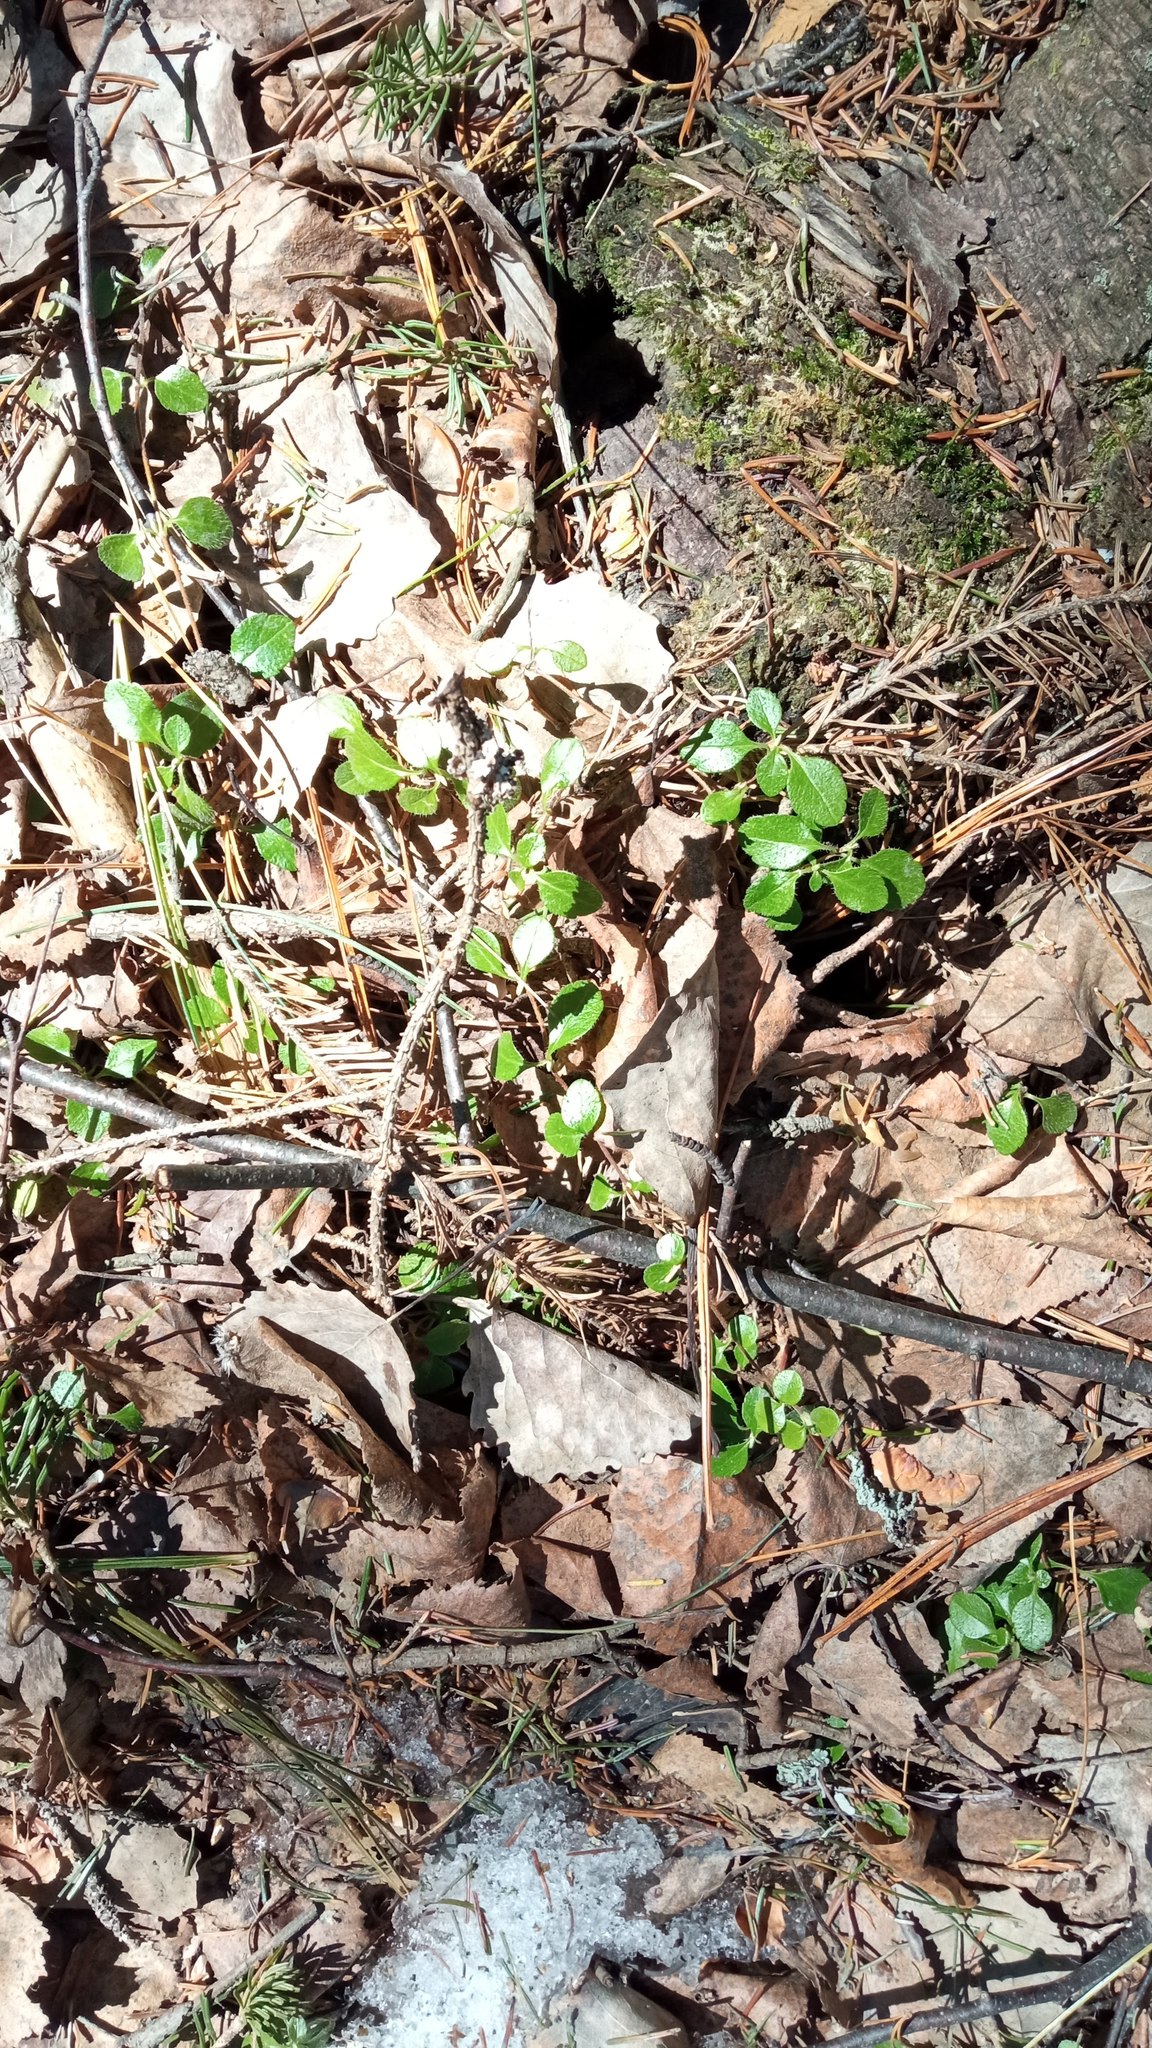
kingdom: Plantae
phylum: Tracheophyta
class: Magnoliopsida
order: Dipsacales
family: Caprifoliaceae
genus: Linnaea
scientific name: Linnaea borealis
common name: Twinflower
